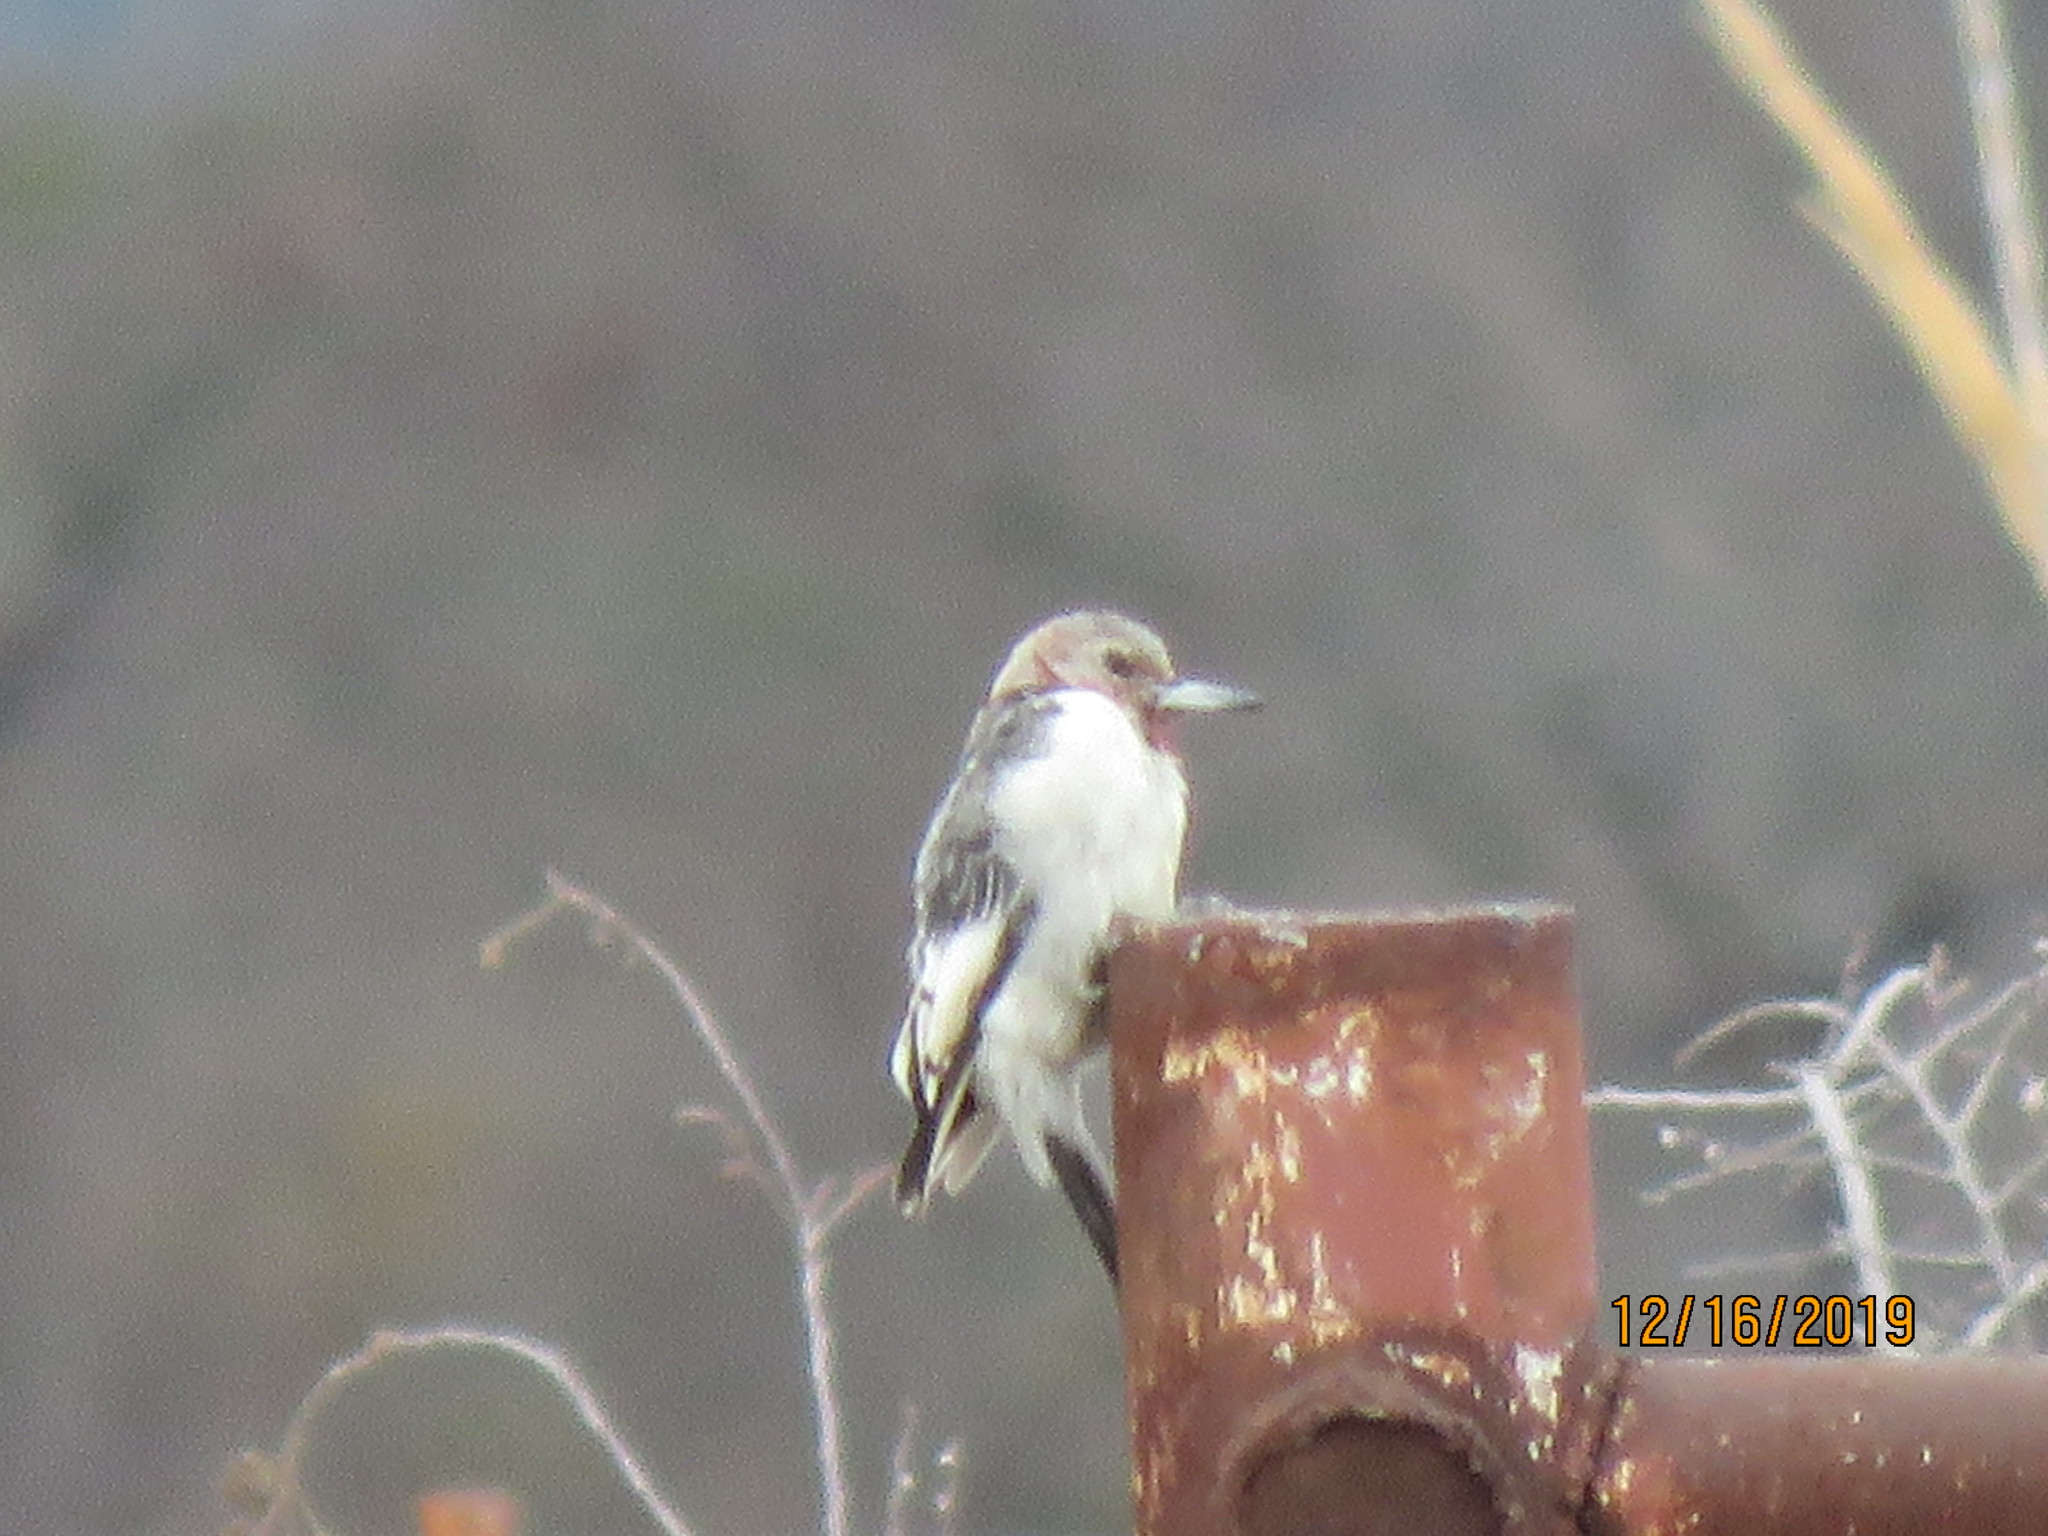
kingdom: Animalia
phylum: Chordata
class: Aves
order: Piciformes
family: Picidae
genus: Melanerpes
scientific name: Melanerpes erythrocephalus
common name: Red-headed woodpecker
